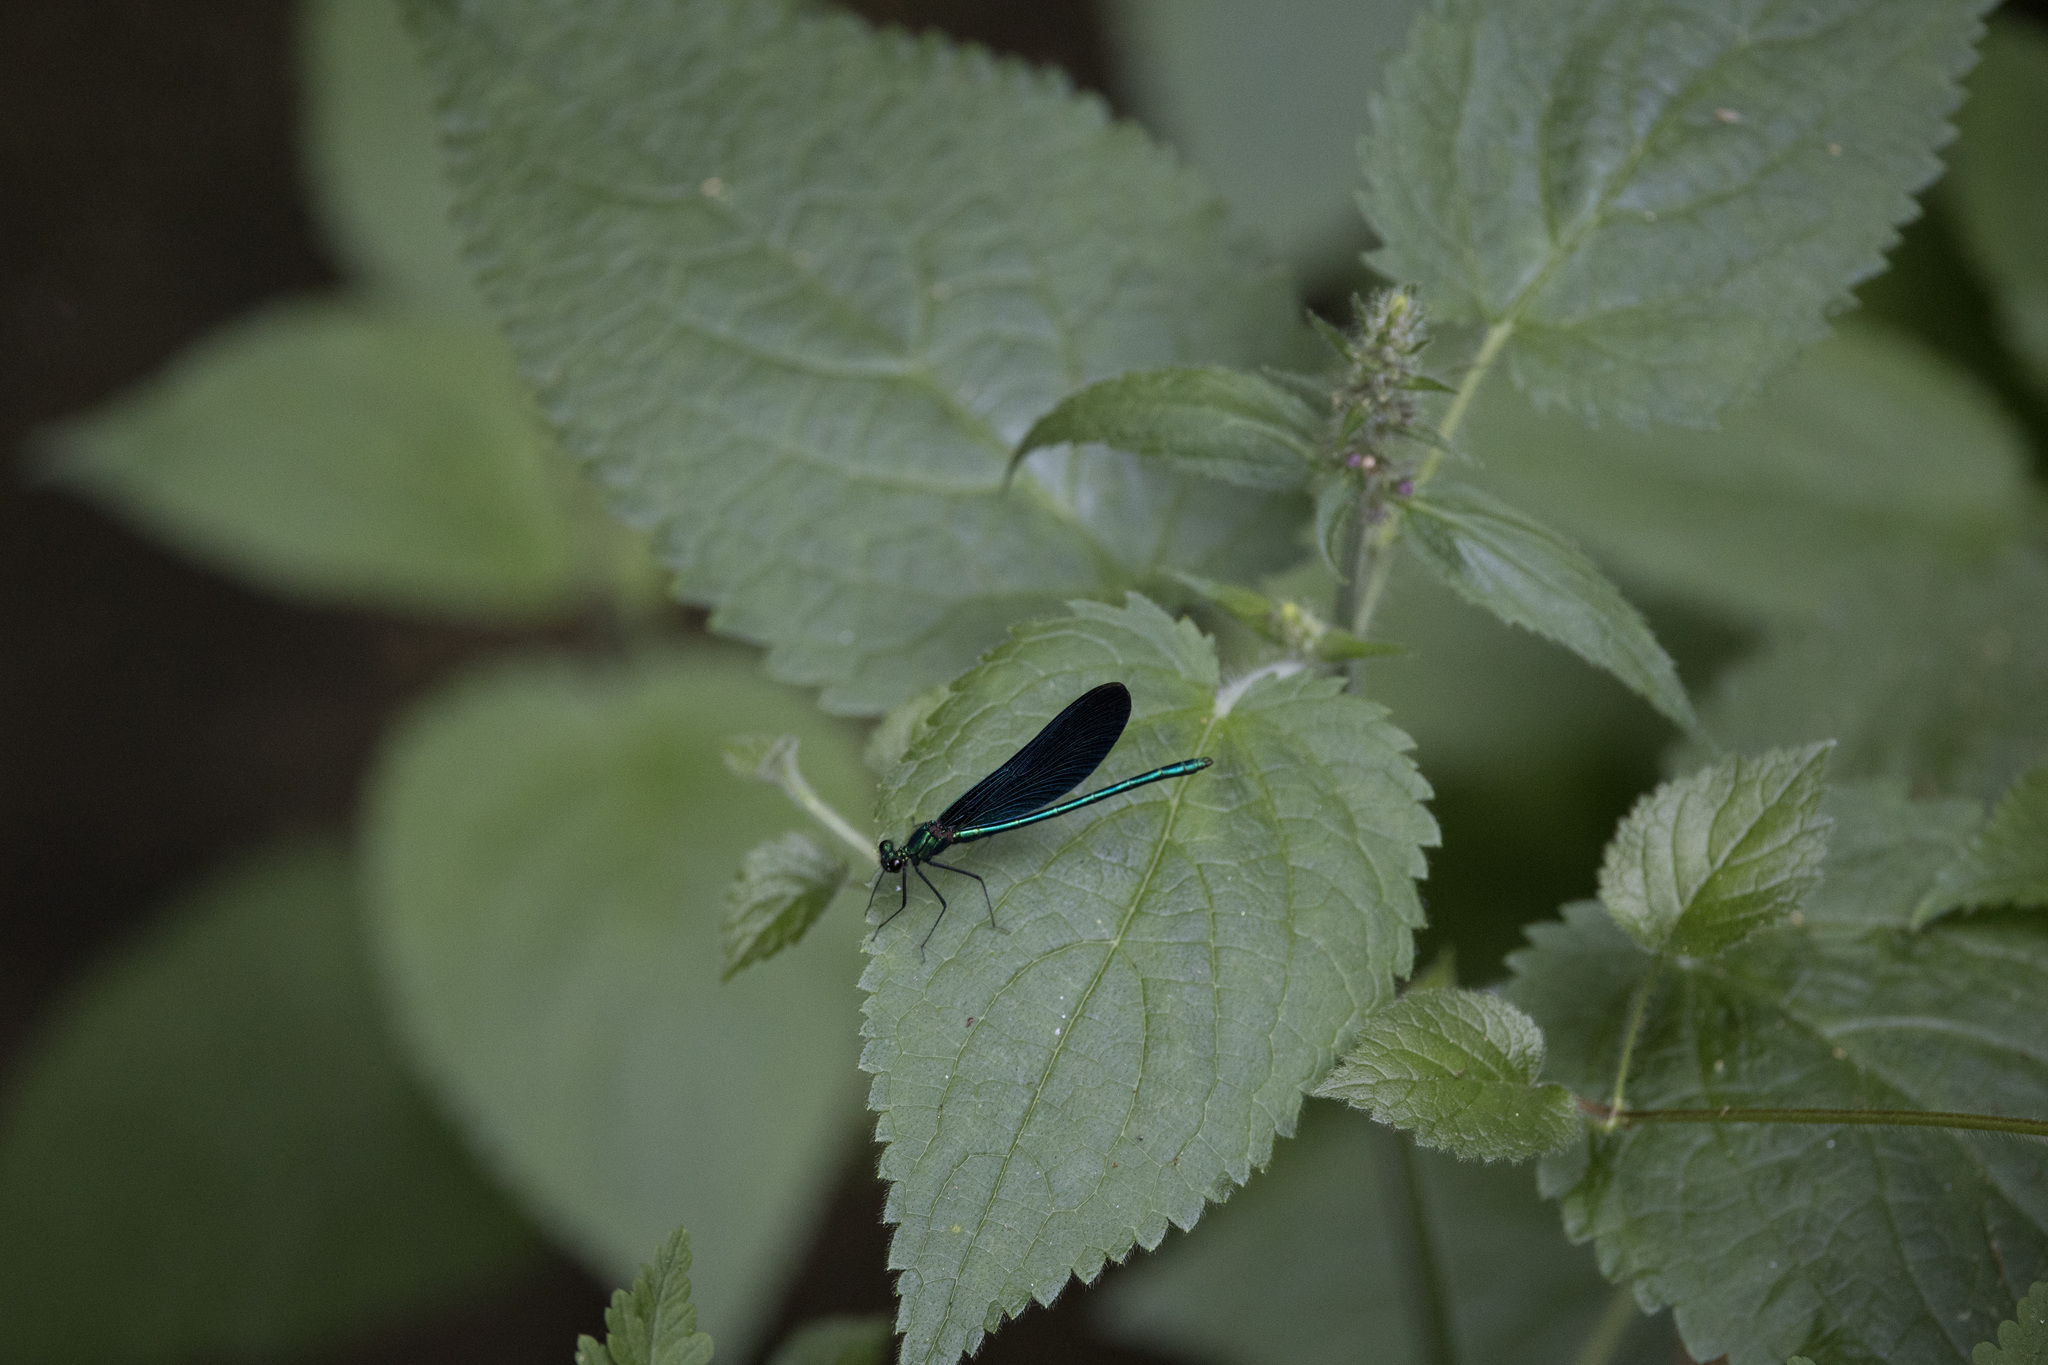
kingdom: Animalia
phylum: Arthropoda
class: Insecta
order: Odonata
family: Calopterygidae
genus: Calopteryx
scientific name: Calopteryx virgo
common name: Beautiful demoiselle
